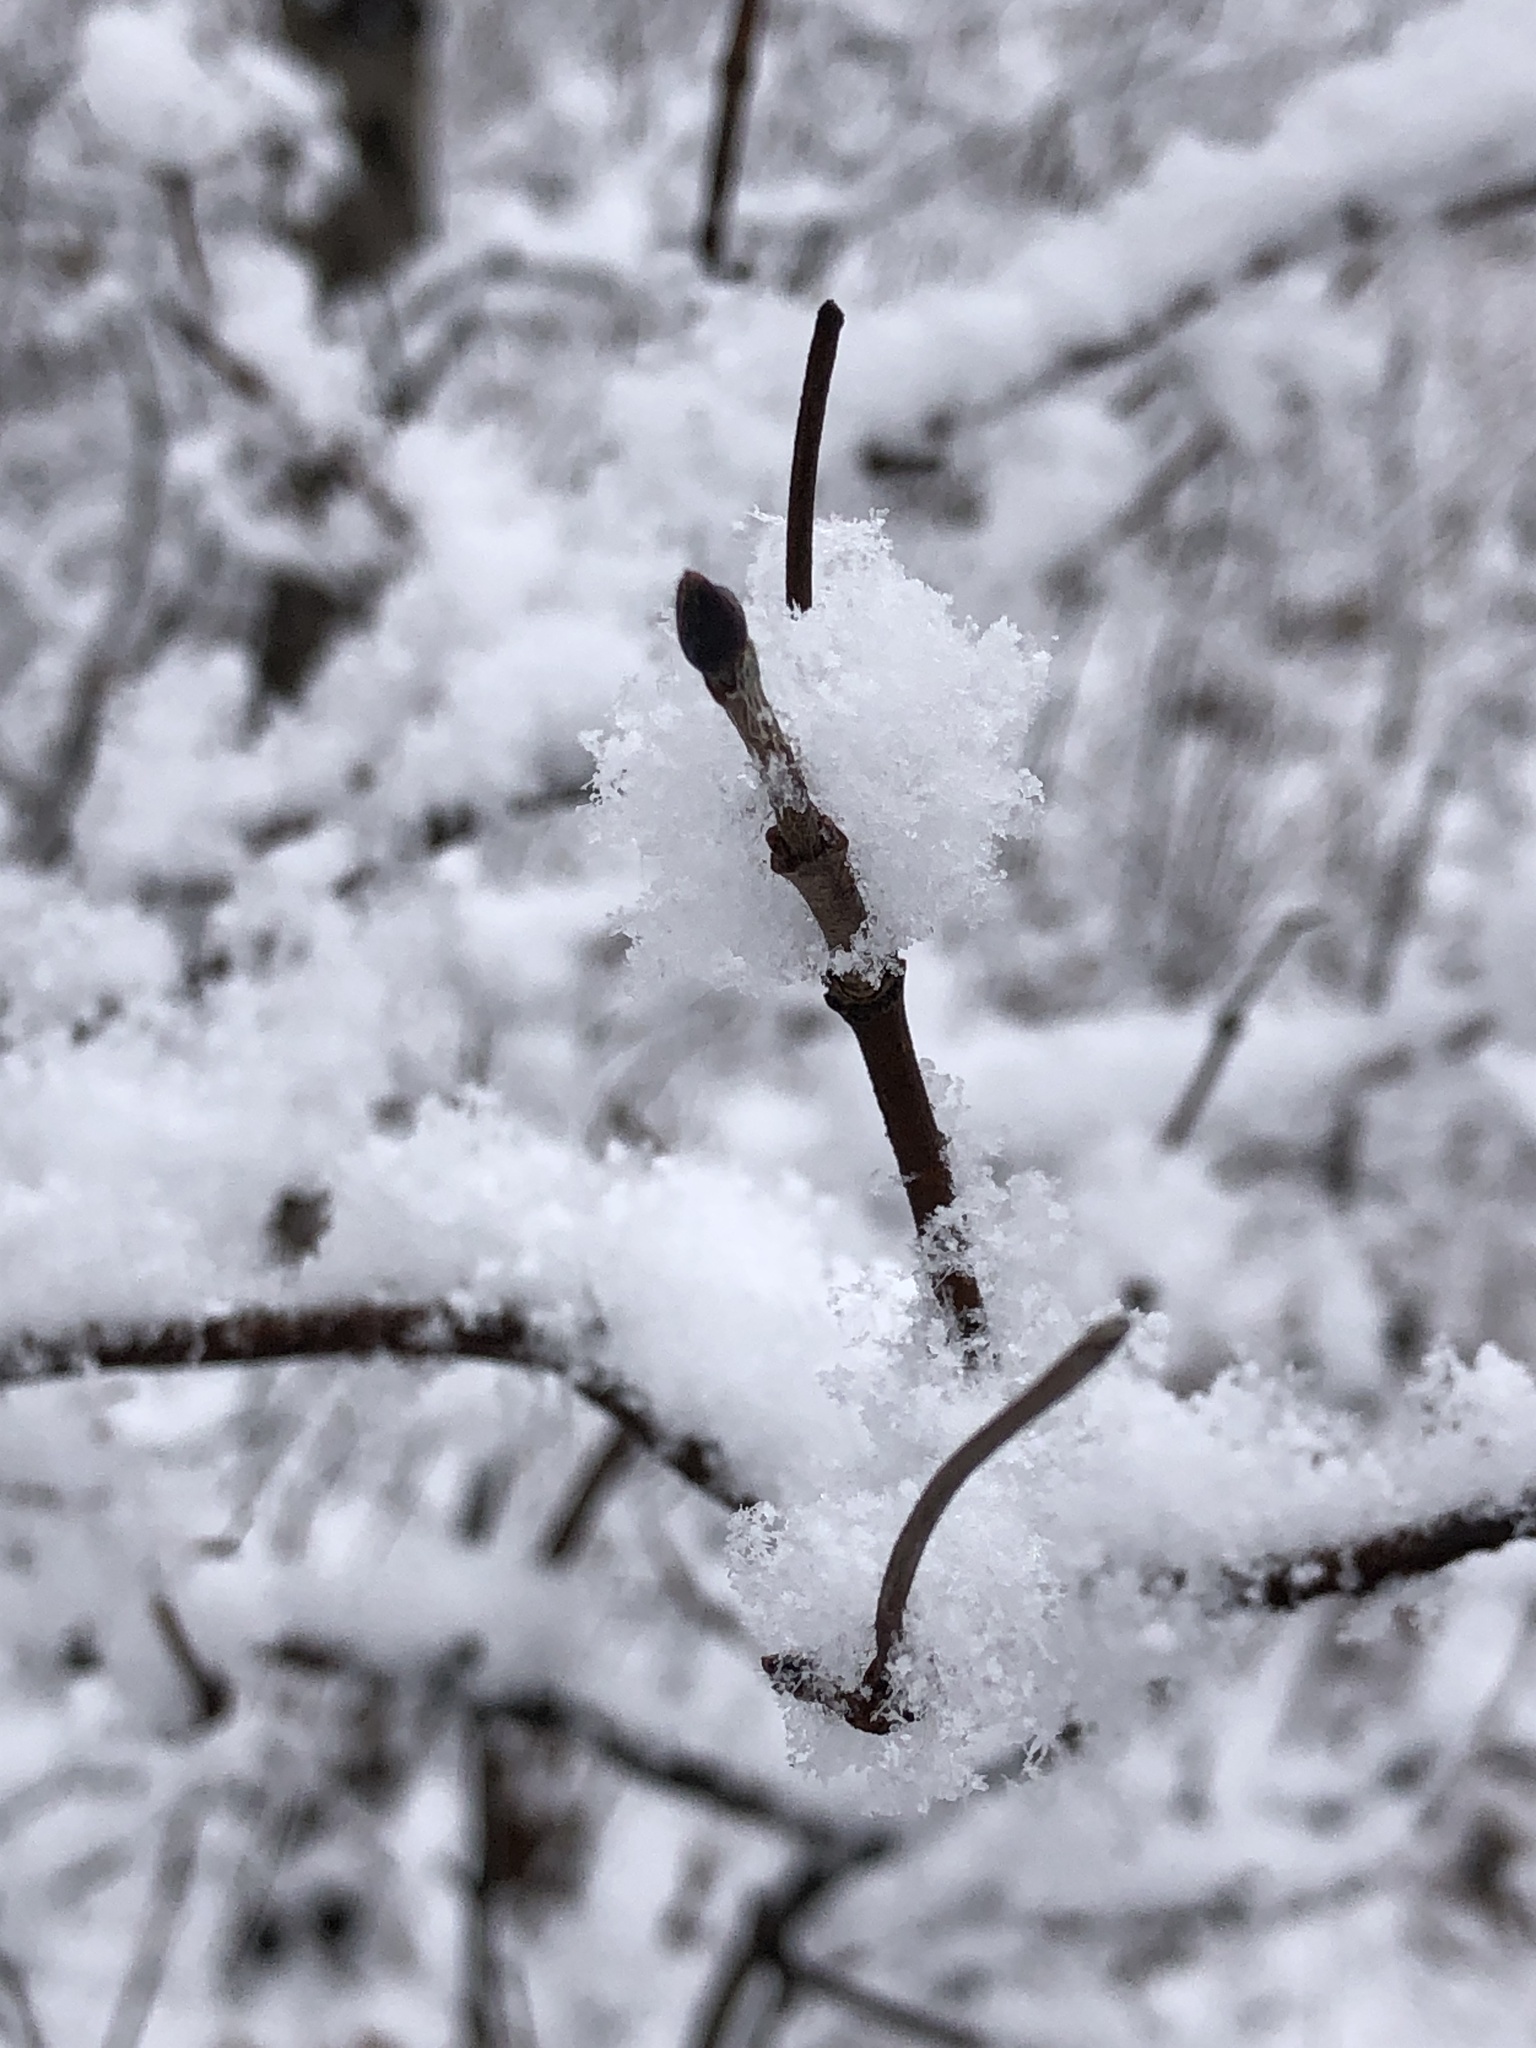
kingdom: Plantae
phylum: Tracheophyta
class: Magnoliopsida
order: Dipsacales
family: Viburnaceae
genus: Viburnum
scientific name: Viburnum acerifolium
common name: Dockmackie
